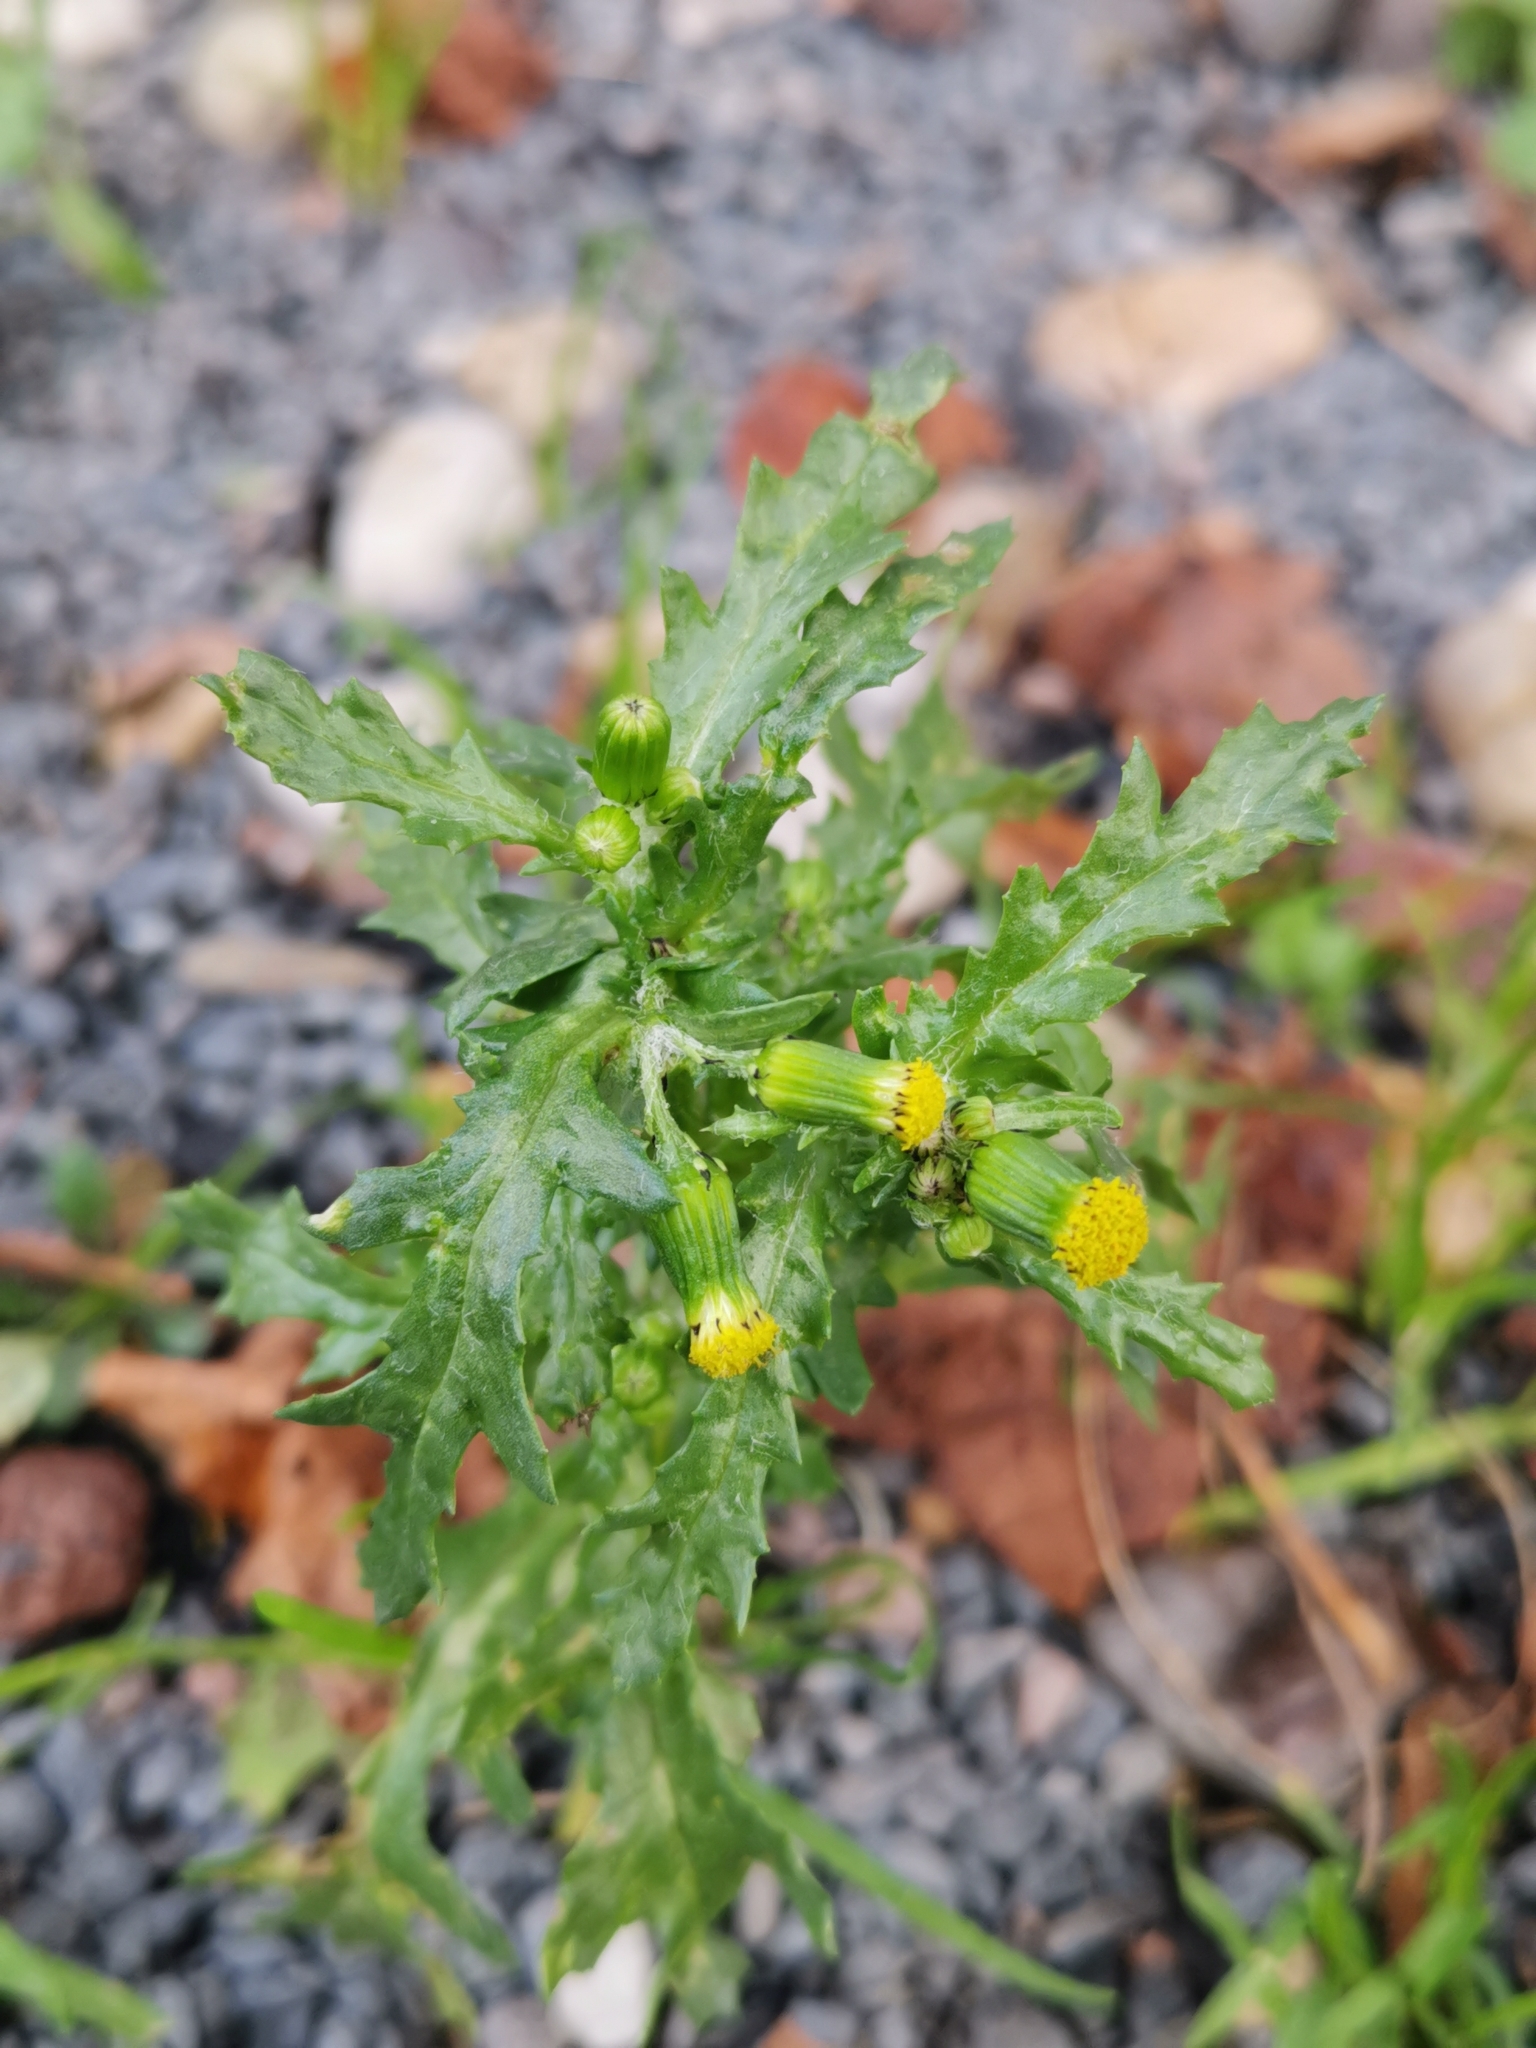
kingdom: Plantae
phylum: Tracheophyta
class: Magnoliopsida
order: Asterales
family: Asteraceae
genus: Senecio
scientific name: Senecio vulgaris
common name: Old-man-in-the-spring
